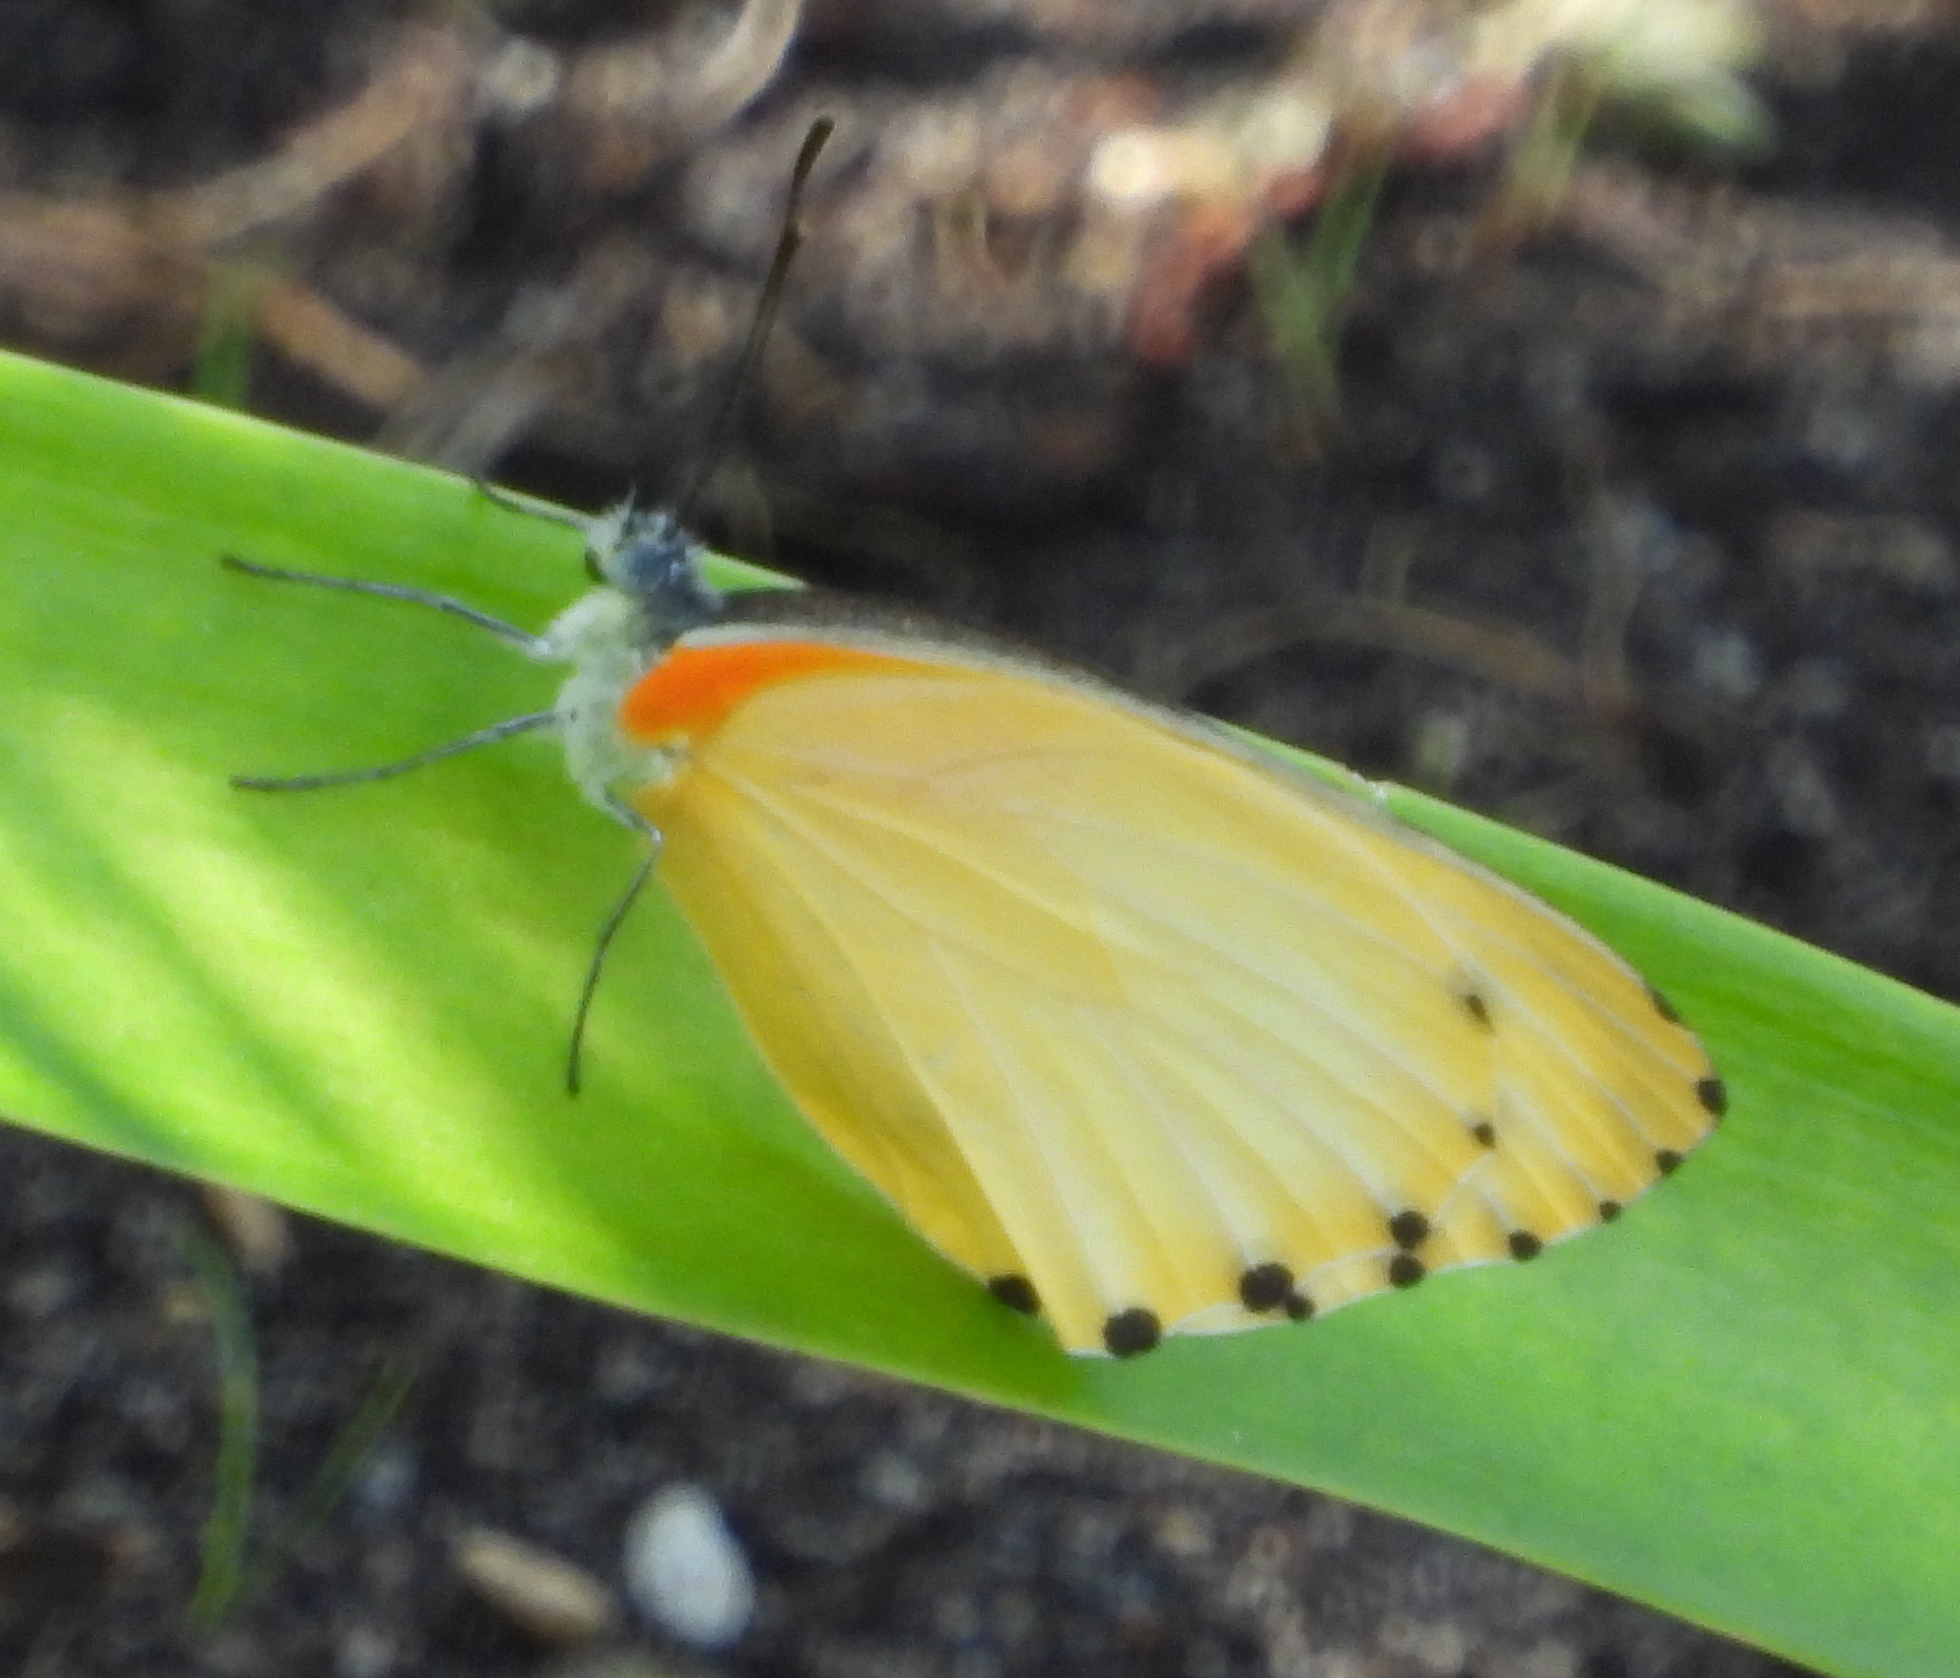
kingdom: Animalia
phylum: Arthropoda
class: Insecta
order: Lepidoptera
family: Pieridae
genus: Mylothris
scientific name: Mylothris agathina
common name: Eastern dotted border
